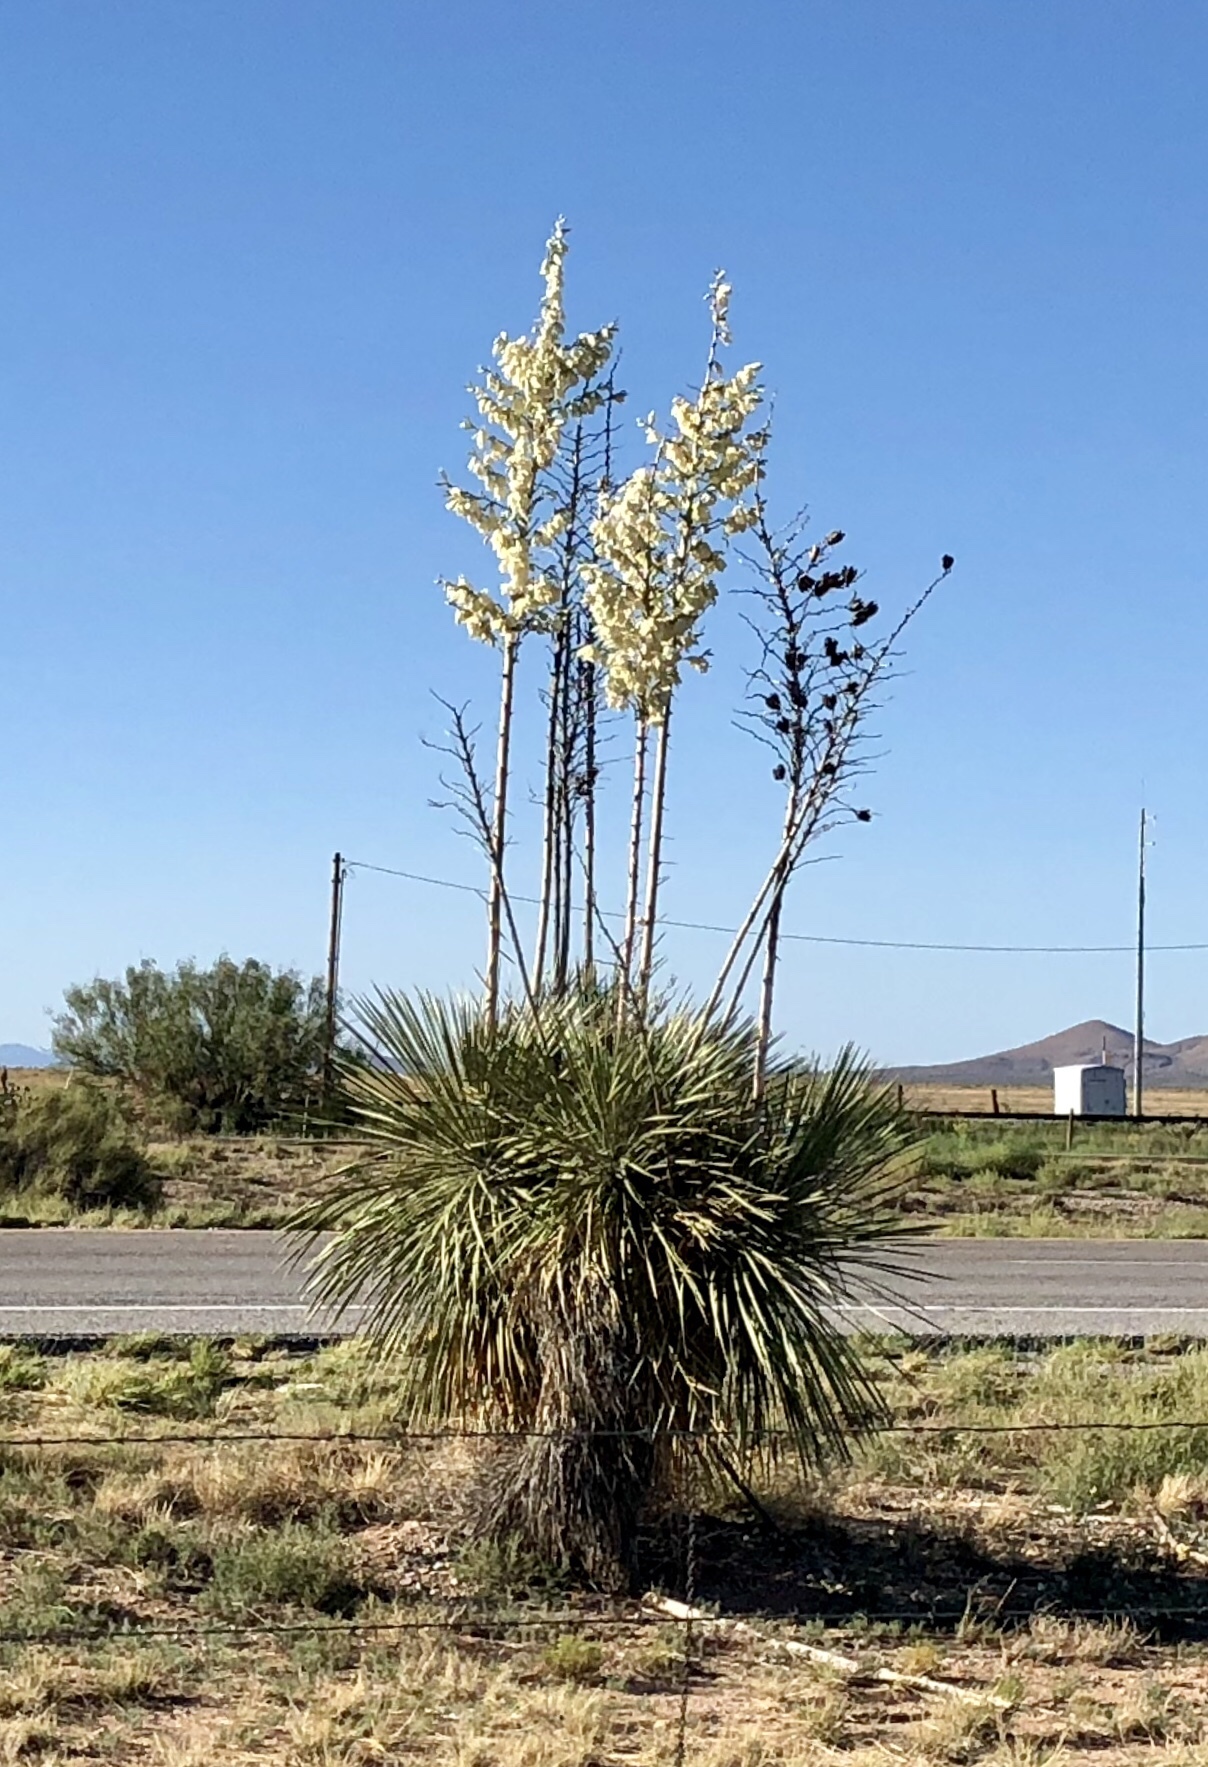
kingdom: Plantae
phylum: Tracheophyta
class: Liliopsida
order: Asparagales
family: Asparagaceae
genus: Yucca
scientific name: Yucca elata
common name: Palmella
